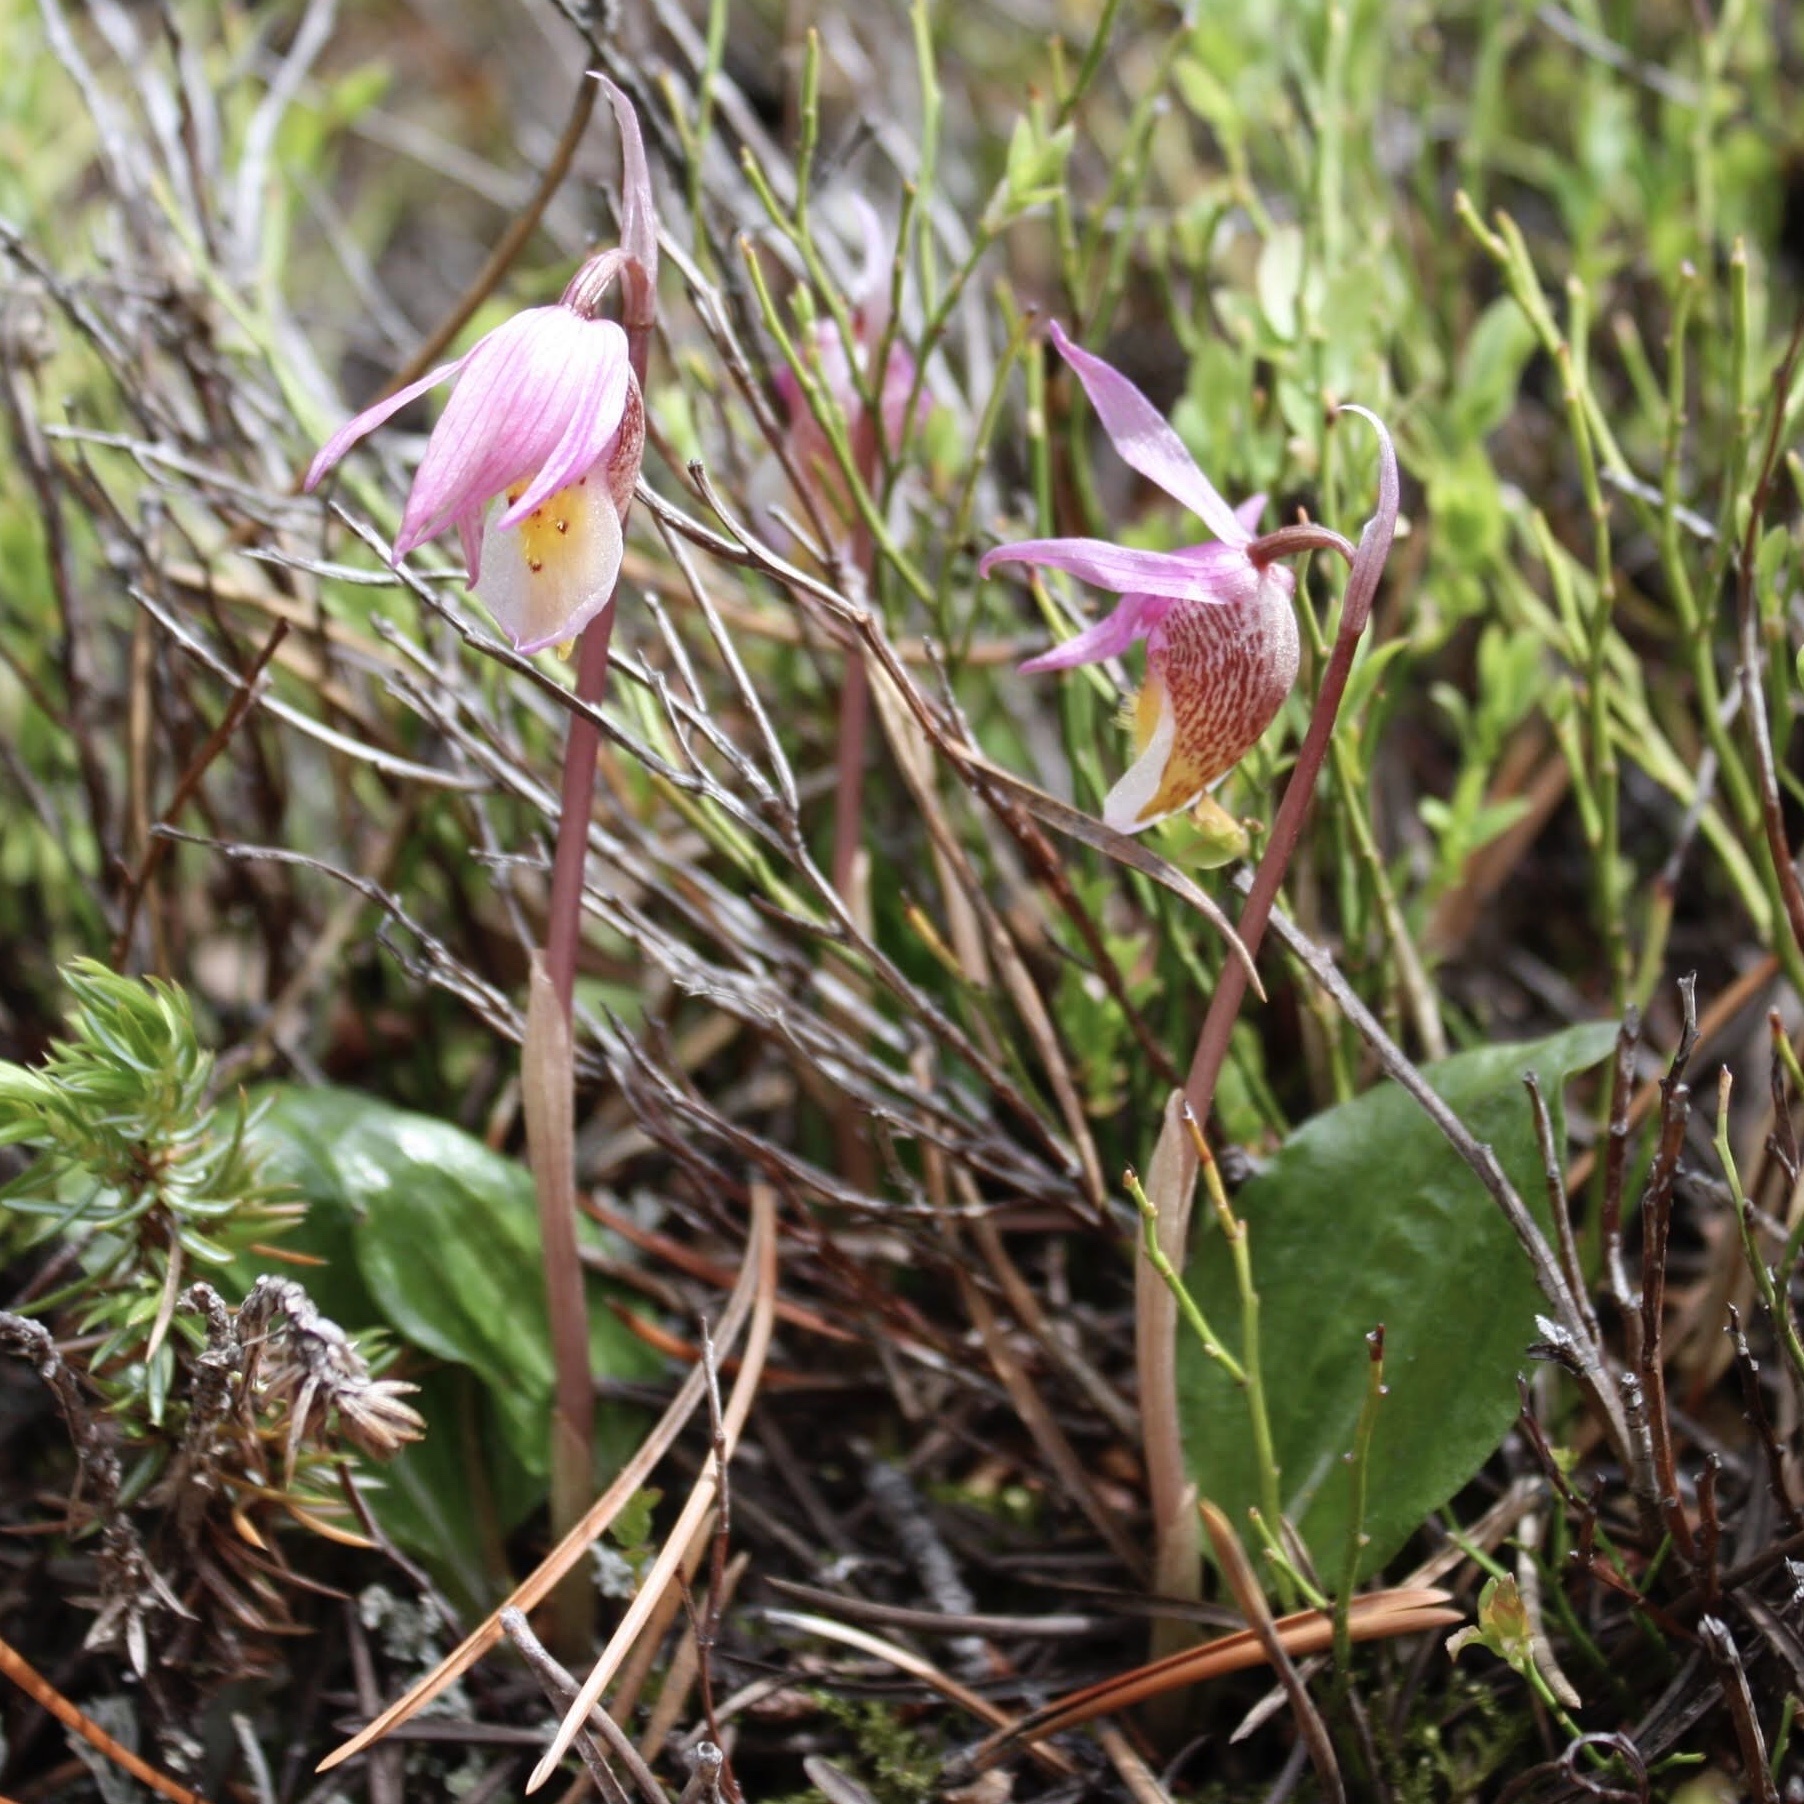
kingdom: Plantae
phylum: Tracheophyta
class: Liliopsida
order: Asparagales
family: Orchidaceae
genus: Calypso
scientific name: Calypso bulbosa
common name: Calypso
